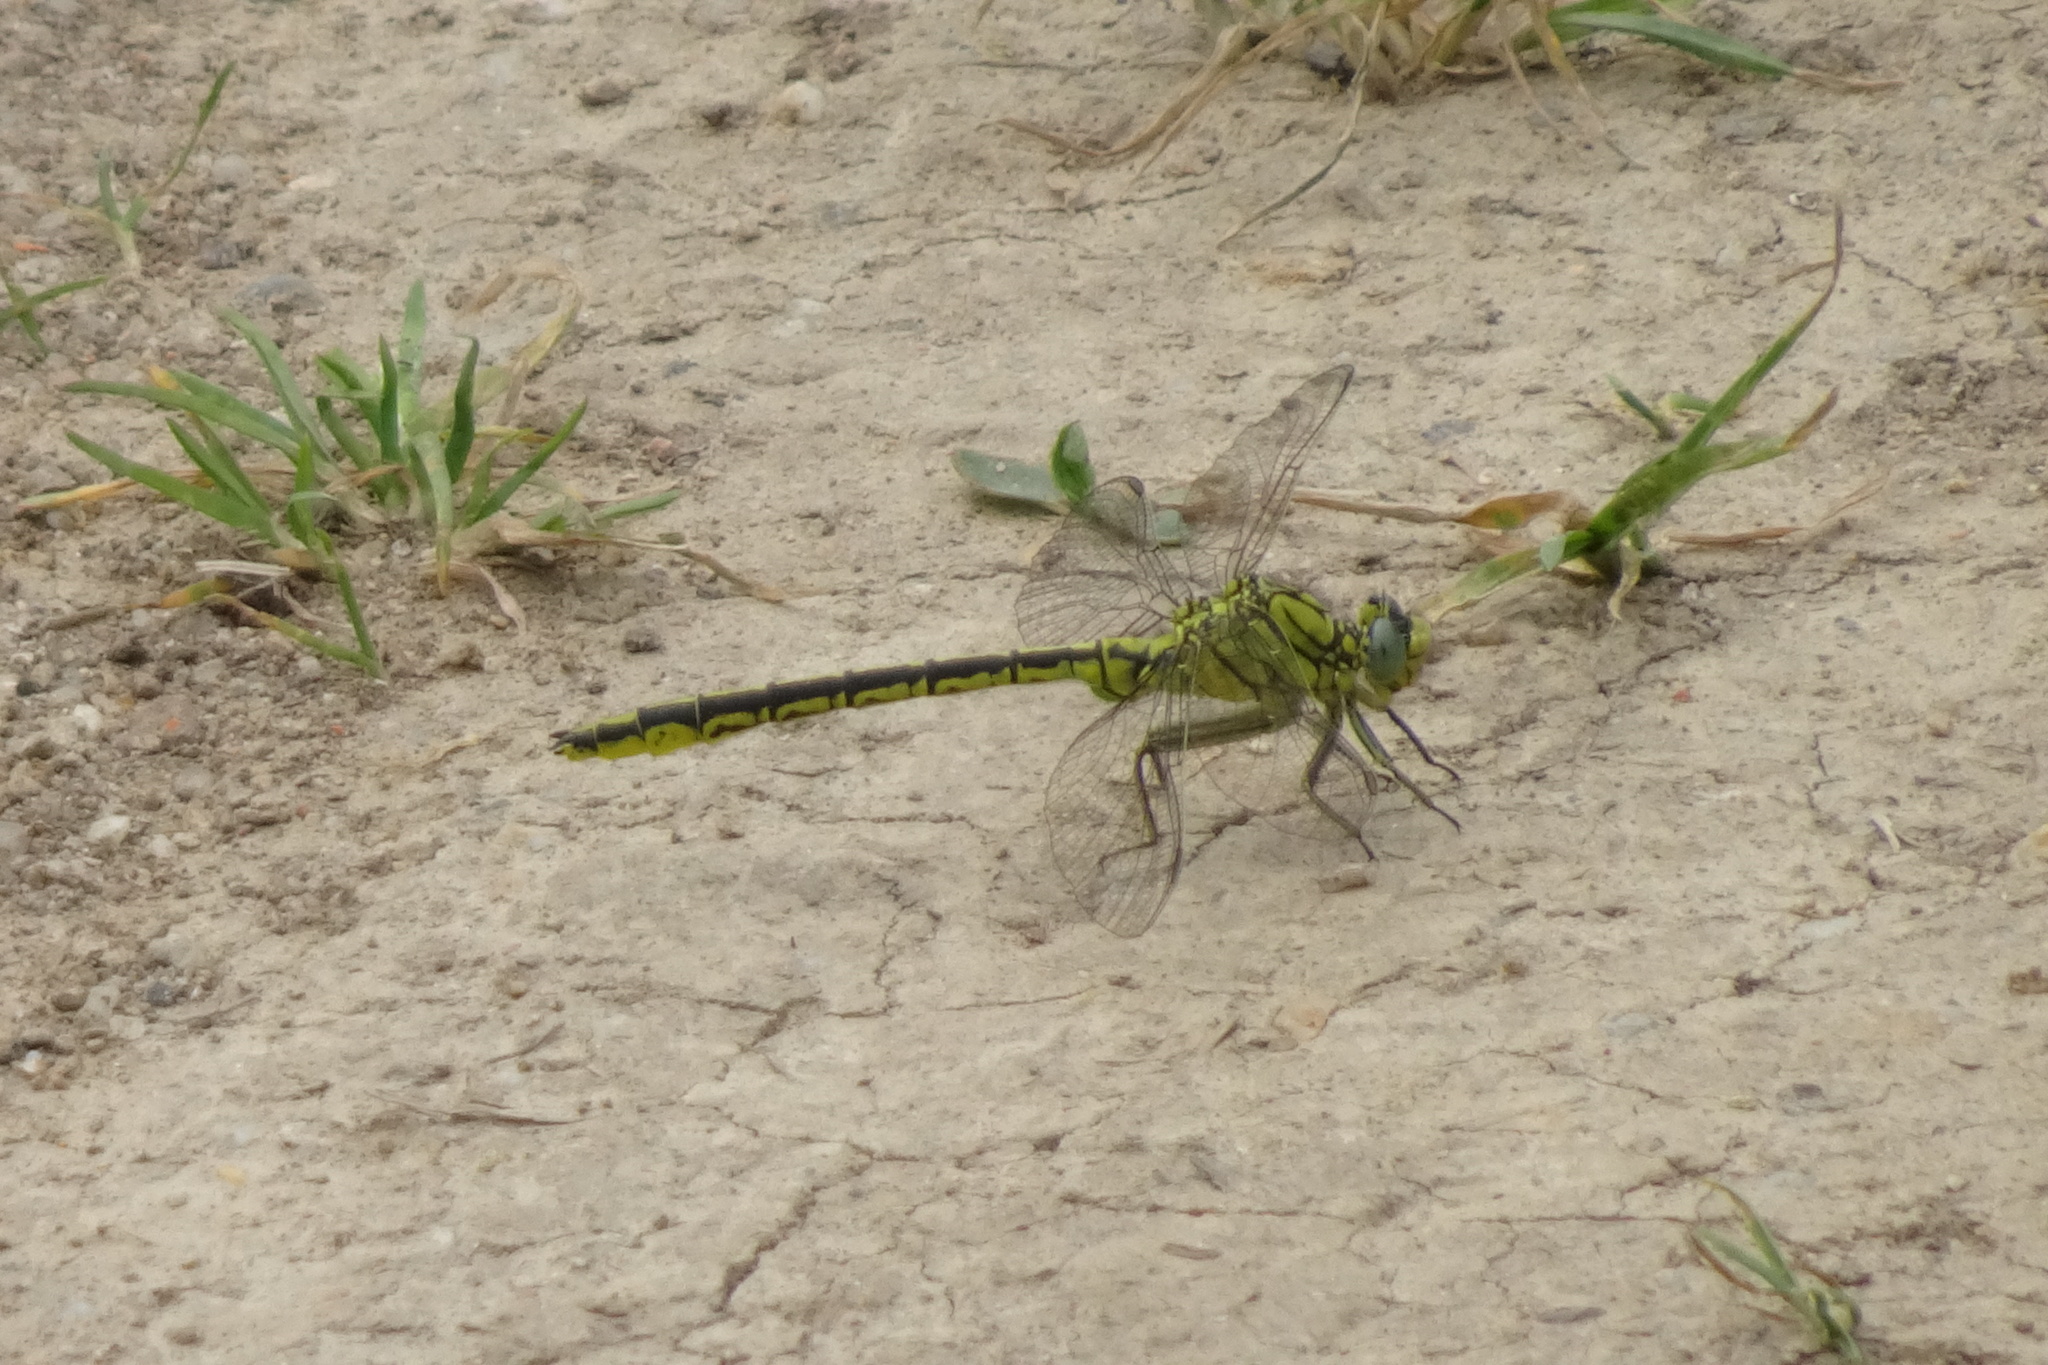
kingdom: Animalia
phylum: Arthropoda
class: Insecta
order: Odonata
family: Gomphidae
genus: Gomphus
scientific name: Gomphus pulchellus
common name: Western clubtail
